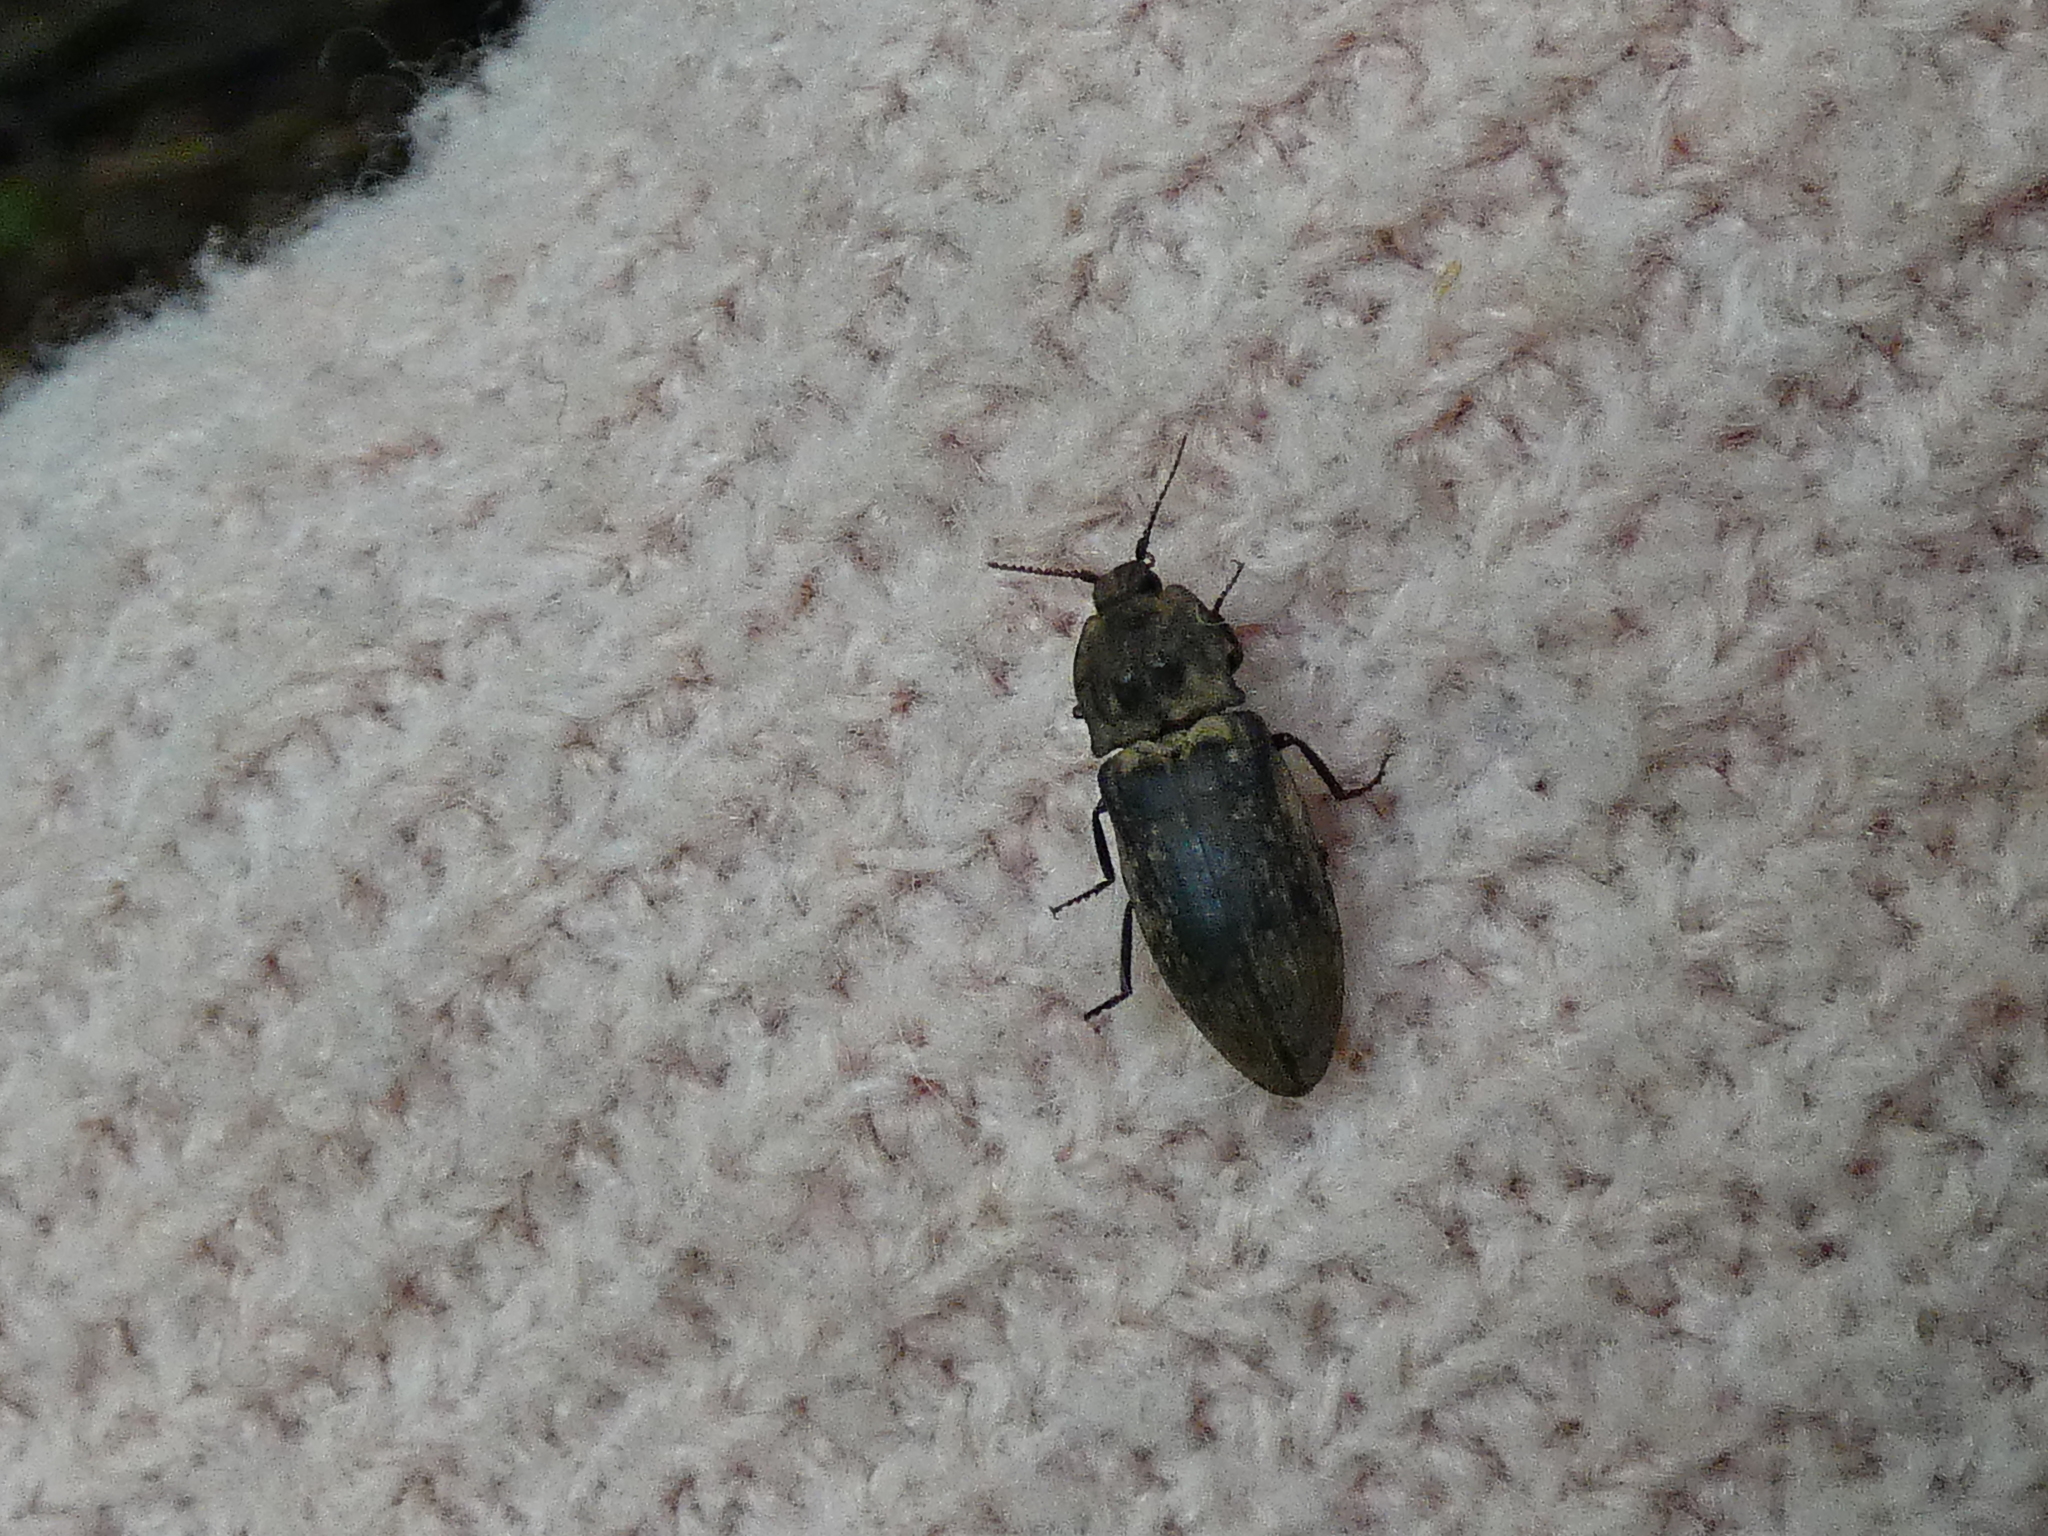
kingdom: Animalia
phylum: Arthropoda
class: Insecta
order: Coleoptera
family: Elateridae
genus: Agrypnus
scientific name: Agrypnus murinus
